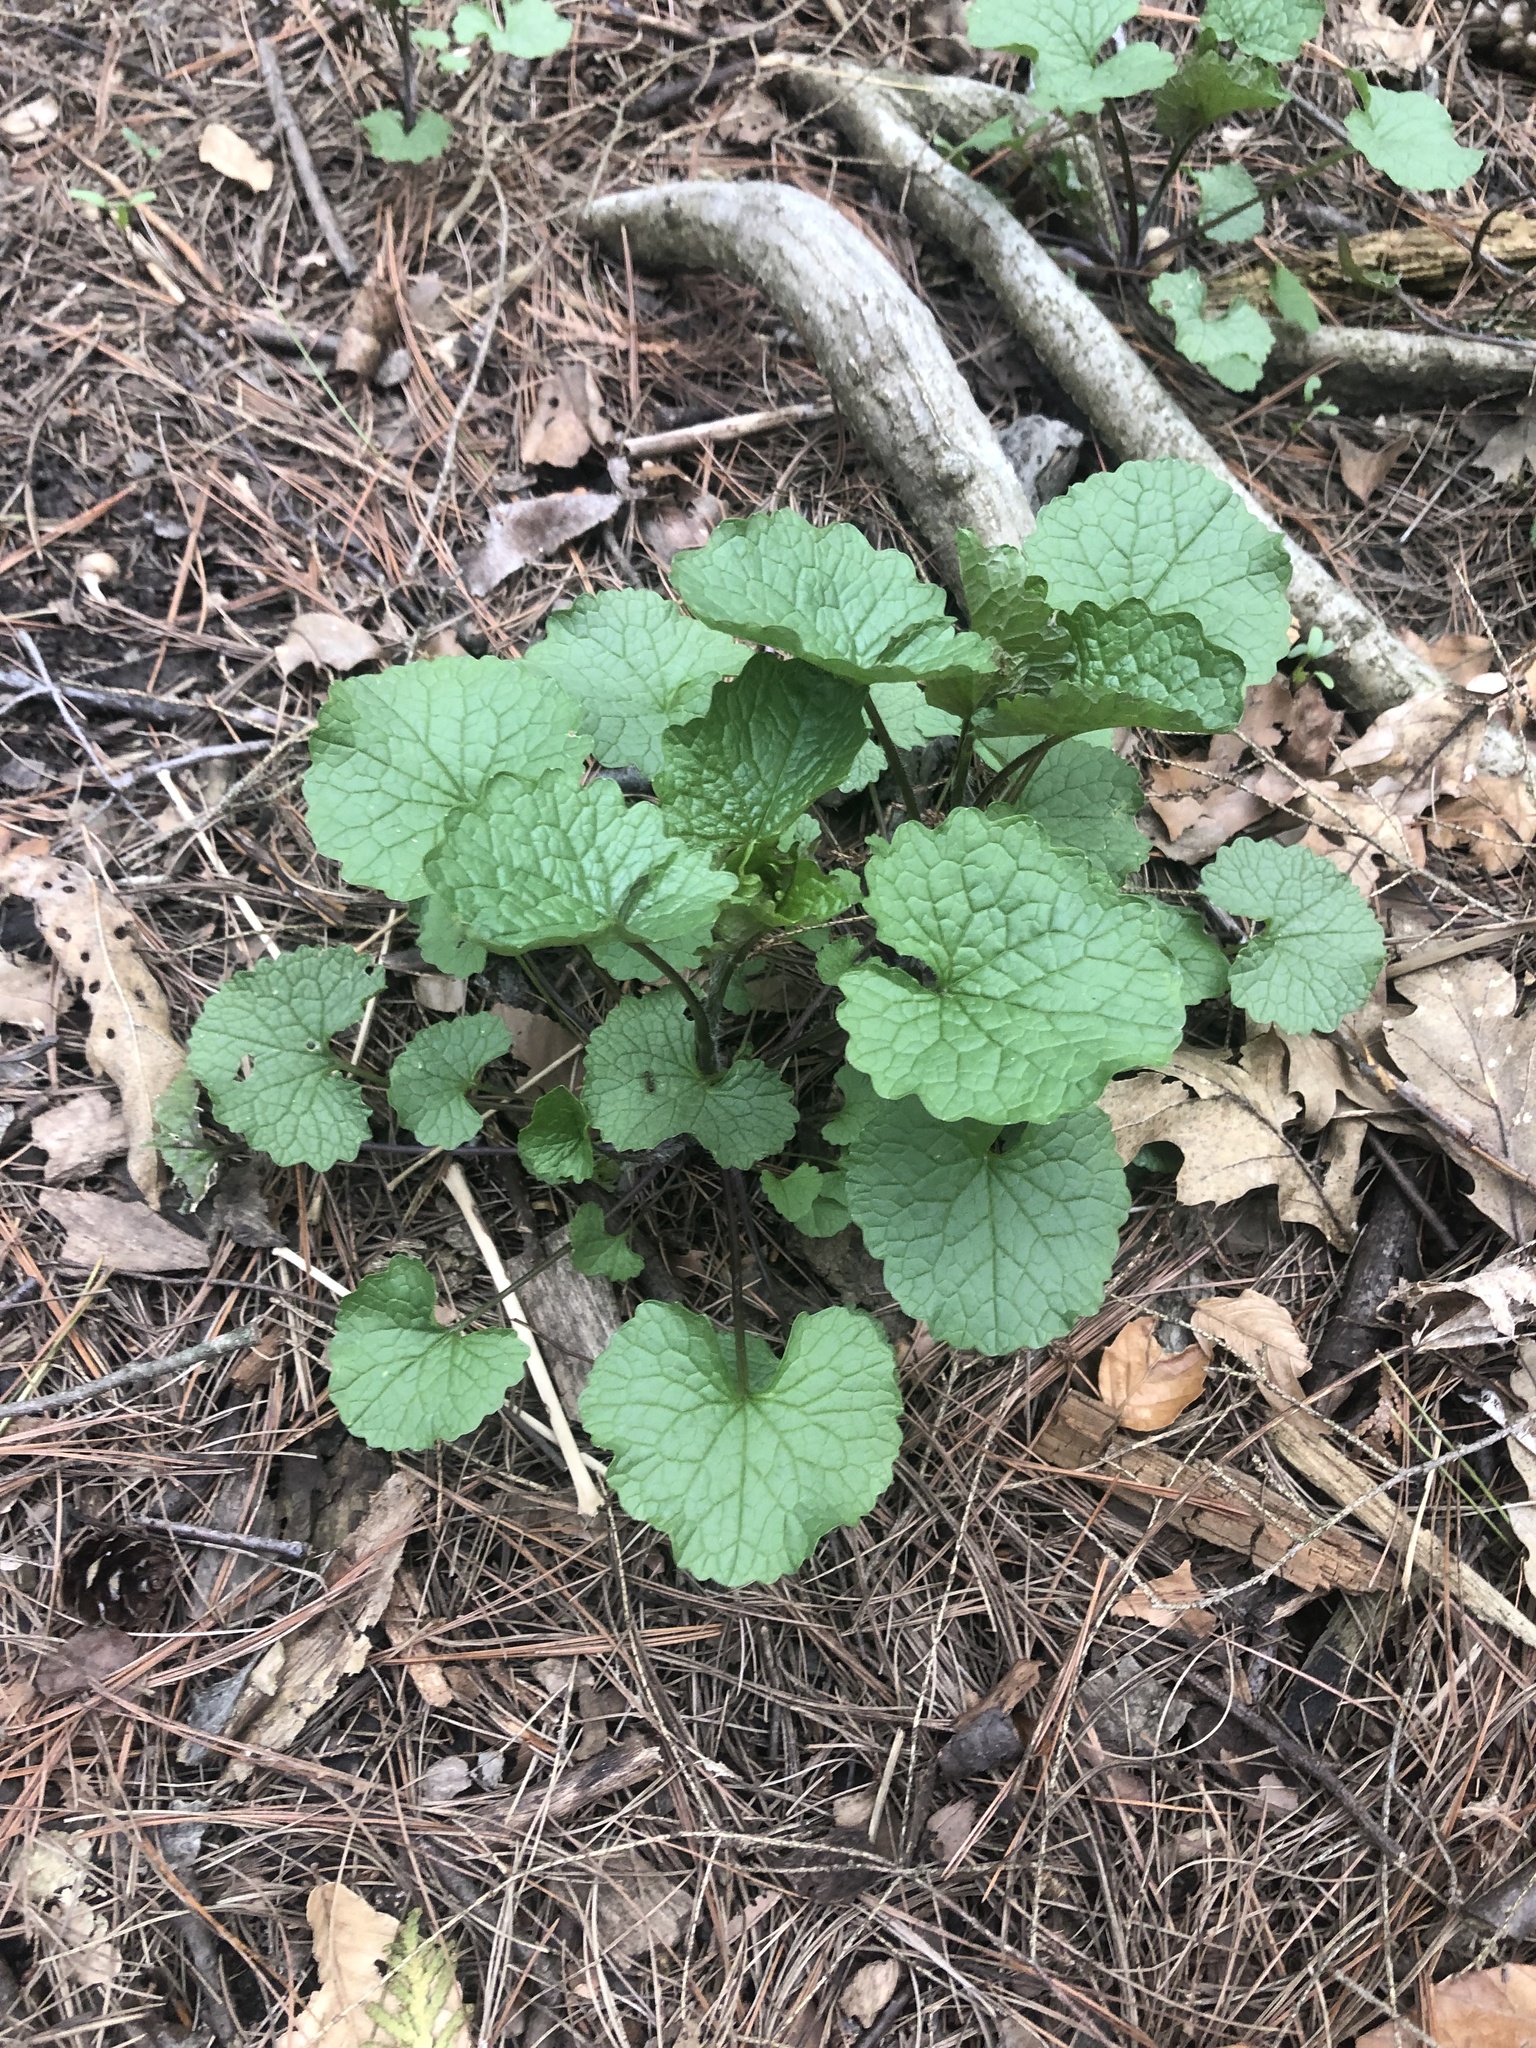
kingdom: Plantae
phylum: Tracheophyta
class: Magnoliopsida
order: Brassicales
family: Brassicaceae
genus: Alliaria
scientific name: Alliaria petiolata
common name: Garlic mustard
